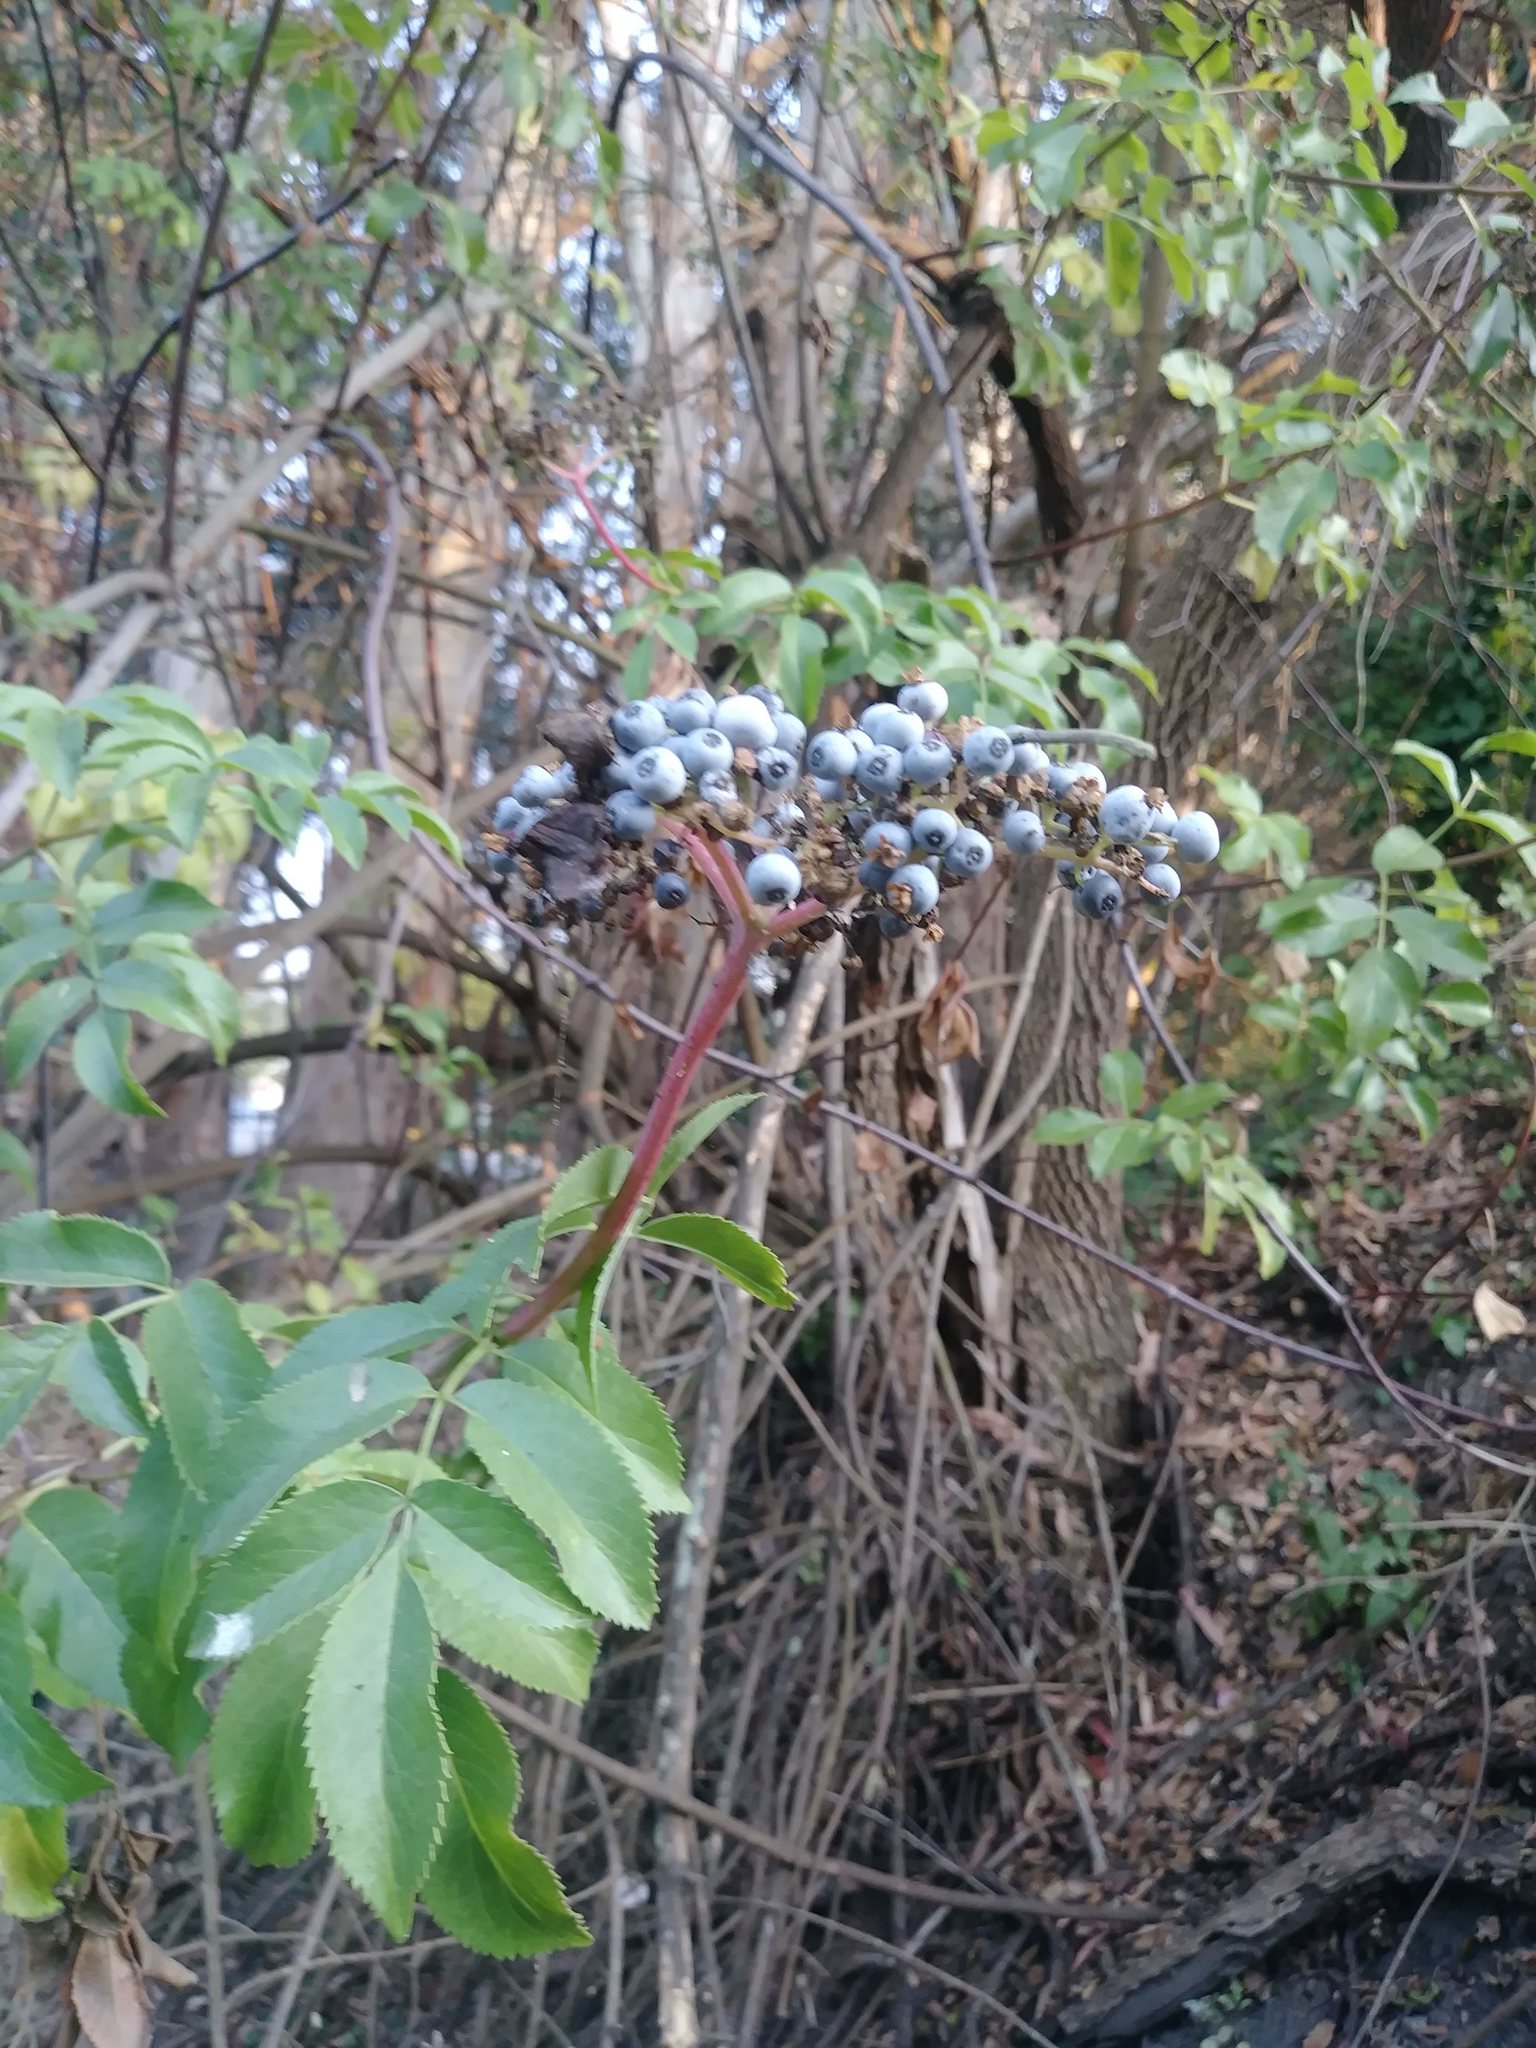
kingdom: Plantae
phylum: Tracheophyta
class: Magnoliopsida
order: Dipsacales
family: Viburnaceae
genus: Sambucus
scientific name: Sambucus cerulea
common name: Blue elder
